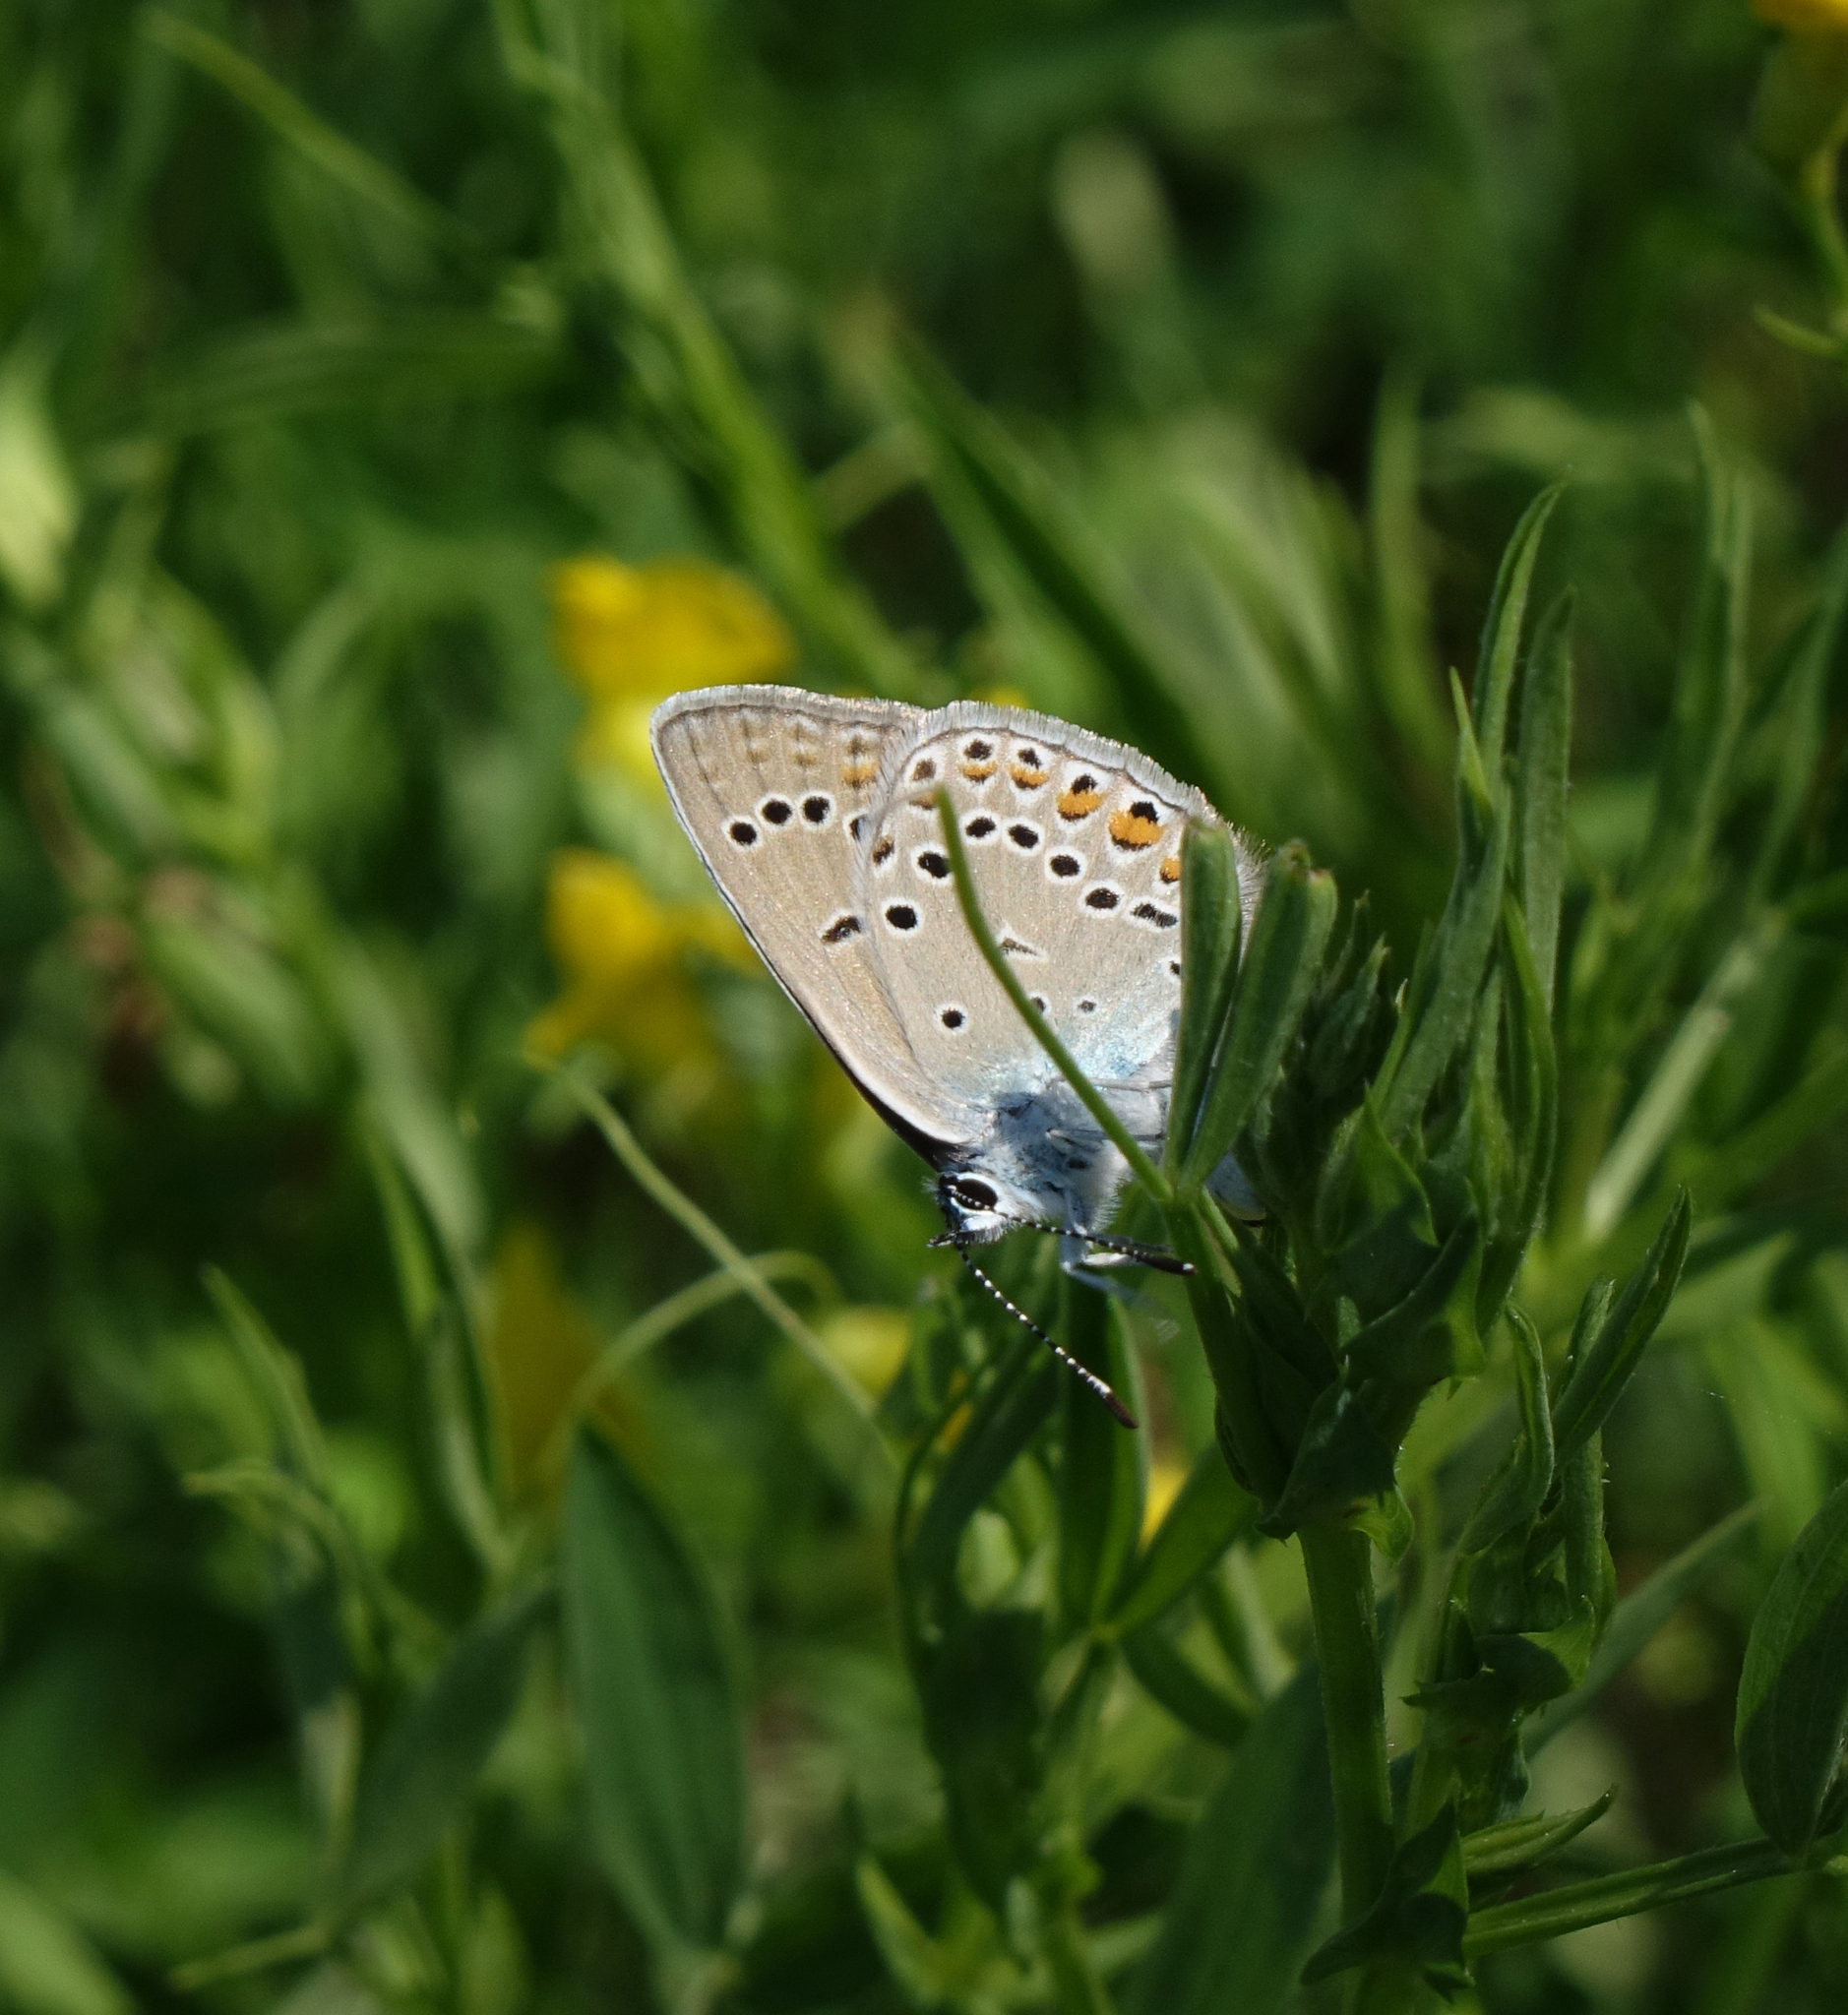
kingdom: Animalia
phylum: Arthropoda
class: Insecta
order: Lepidoptera
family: Lycaenidae
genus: Plebejus
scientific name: Plebejus amanda
